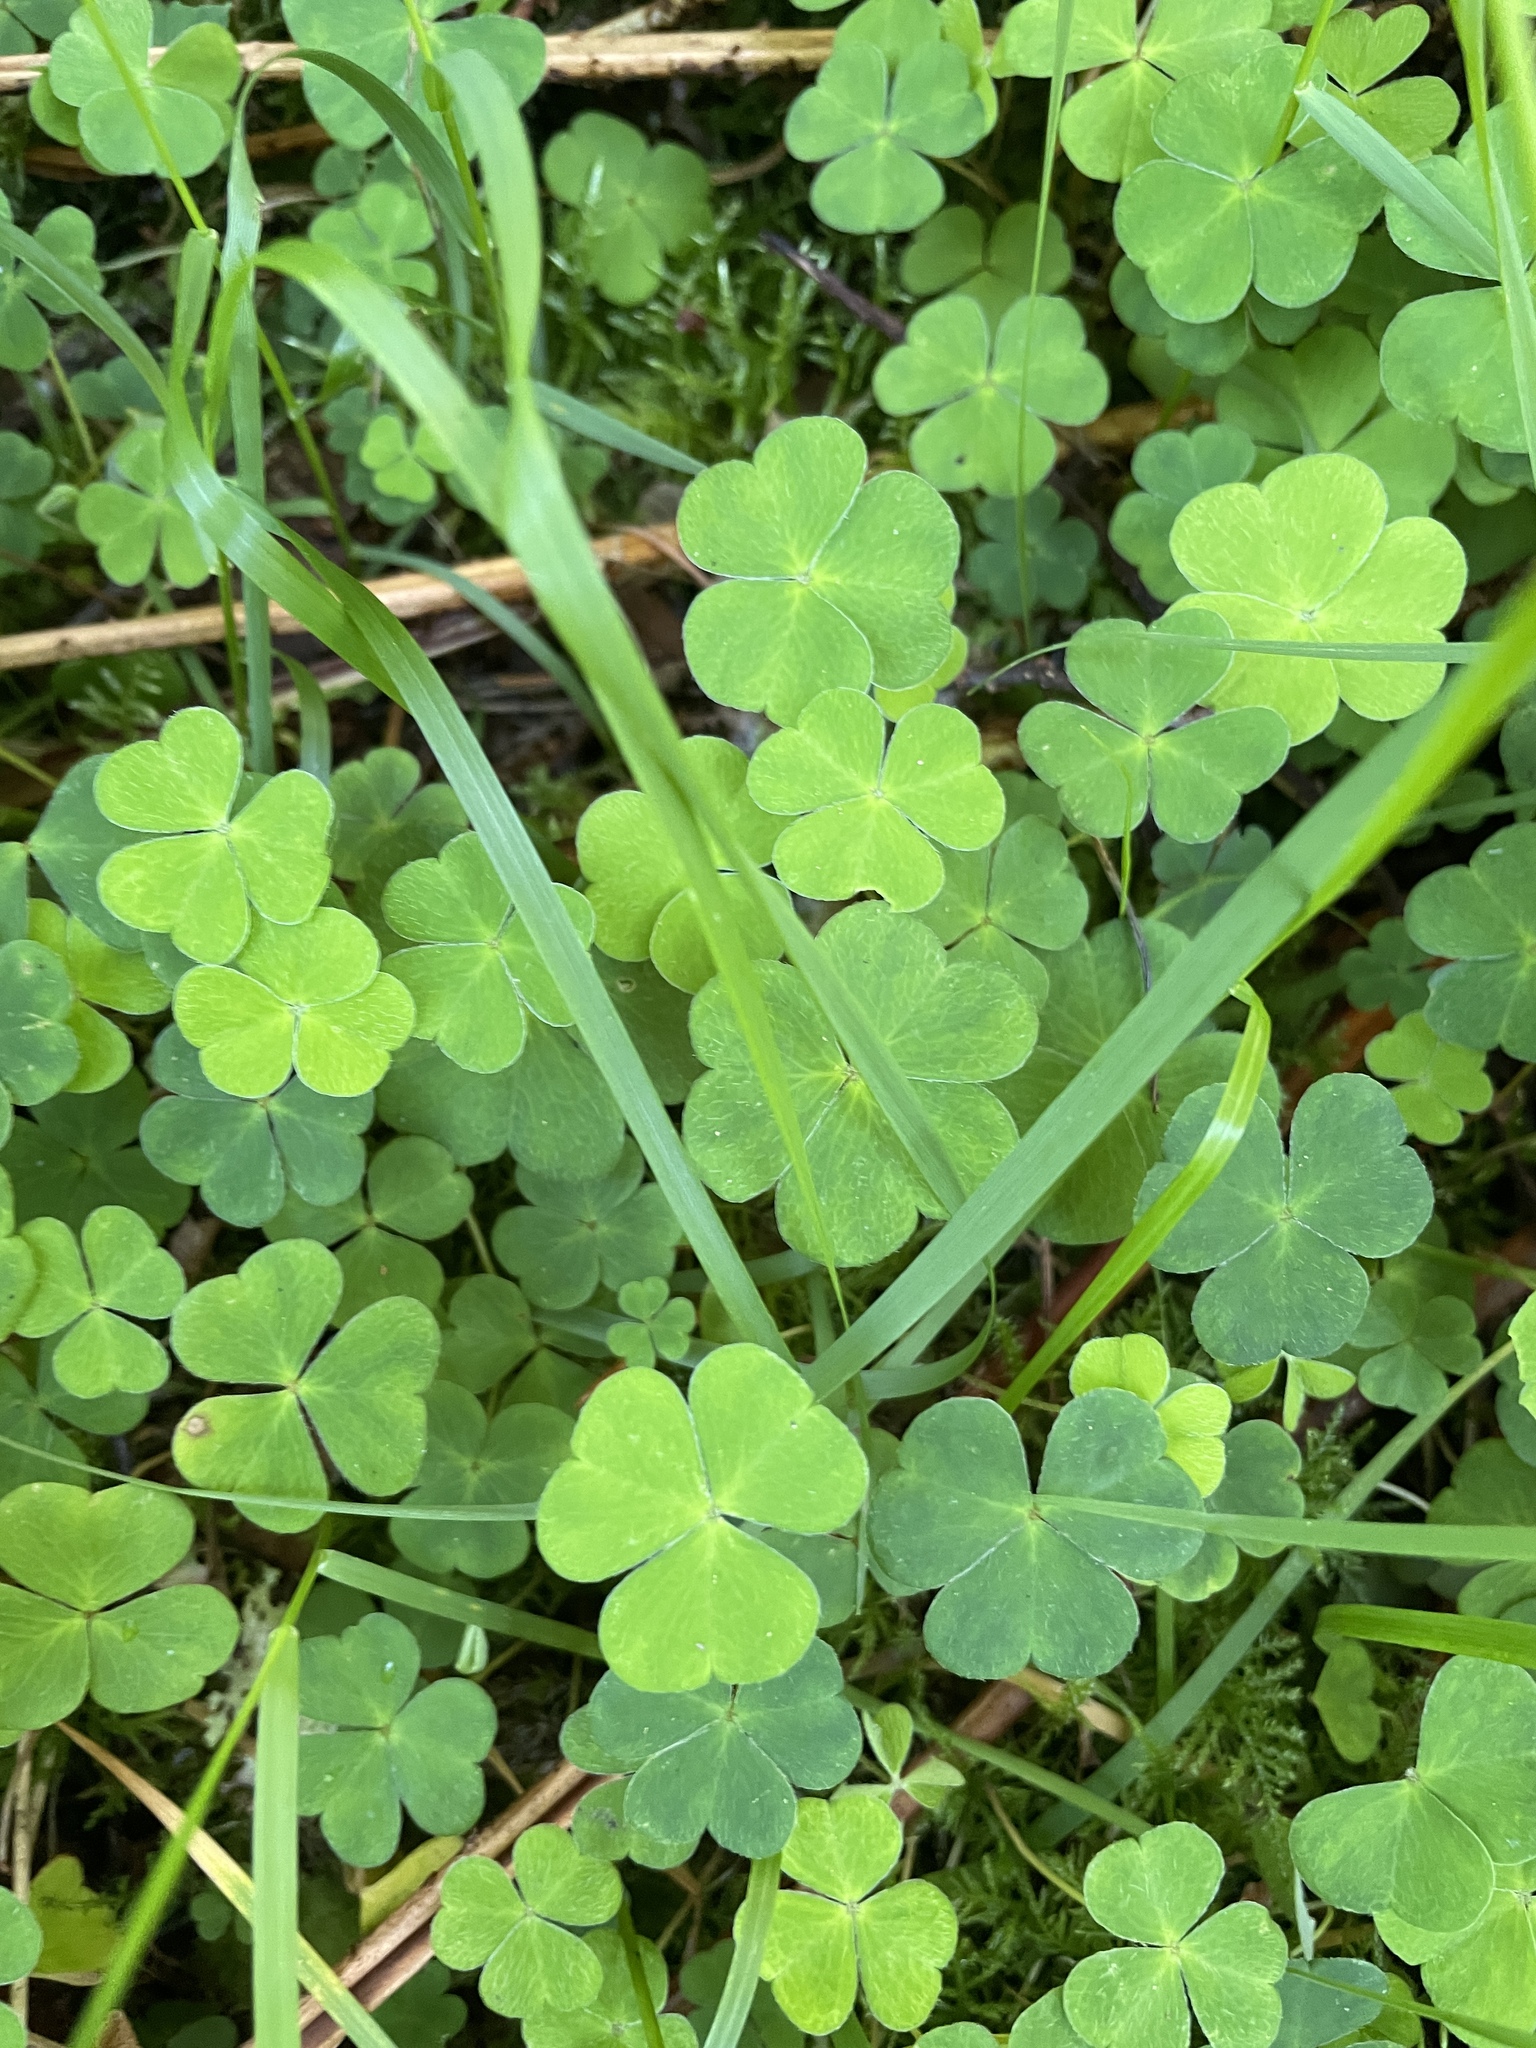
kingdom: Plantae
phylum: Tracheophyta
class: Magnoliopsida
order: Oxalidales
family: Oxalidaceae
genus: Oxalis
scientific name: Oxalis acetosella
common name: Wood-sorrel
